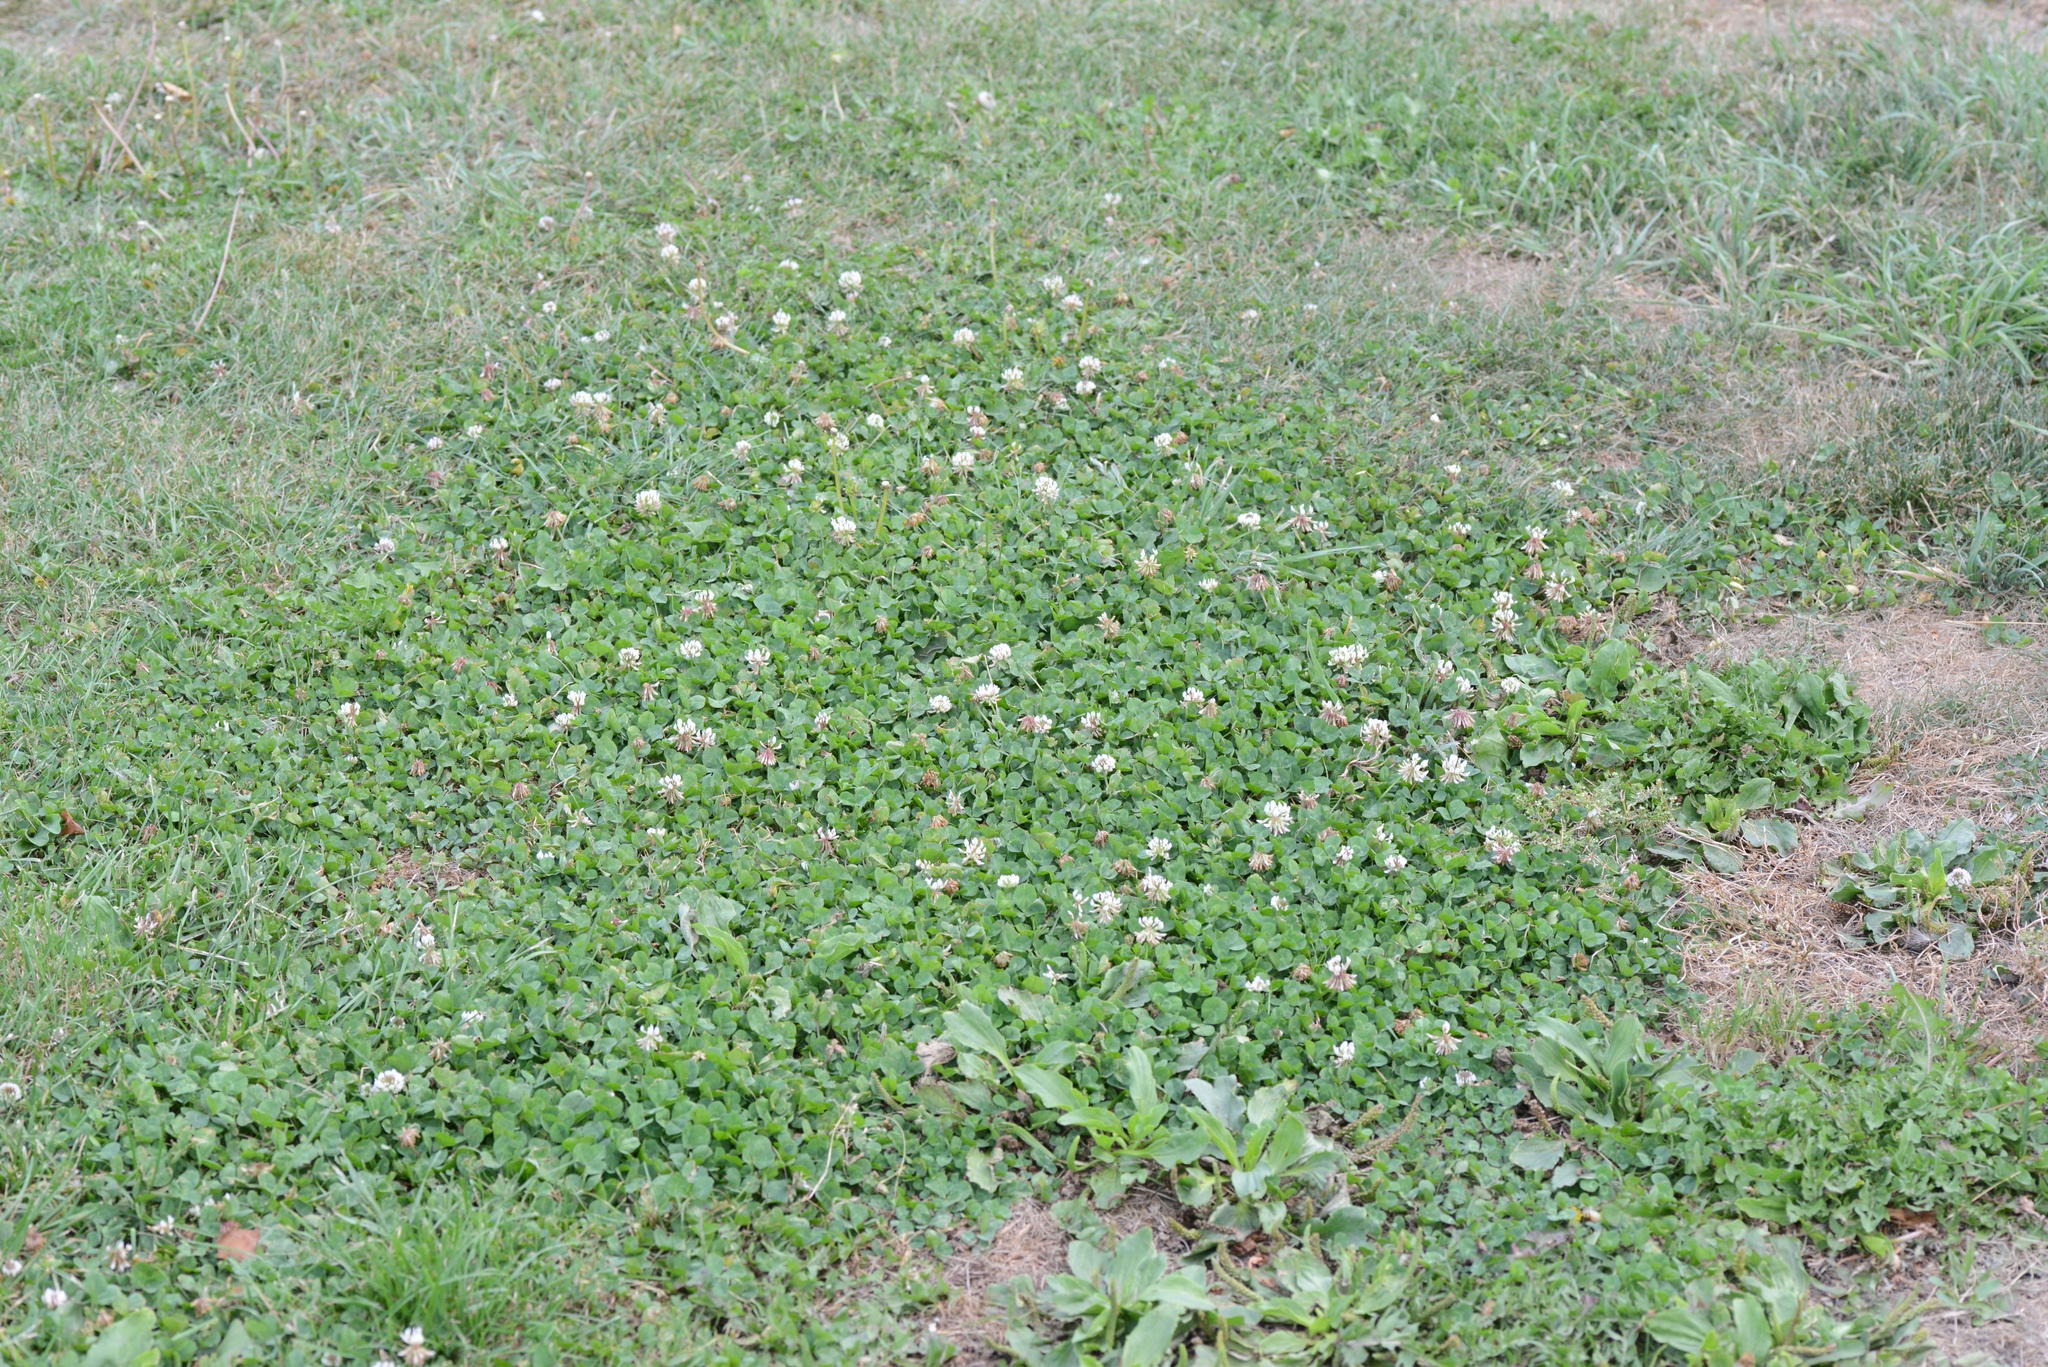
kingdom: Plantae
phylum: Tracheophyta
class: Magnoliopsida
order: Fabales
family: Fabaceae
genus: Trifolium
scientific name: Trifolium repens
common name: White clover
